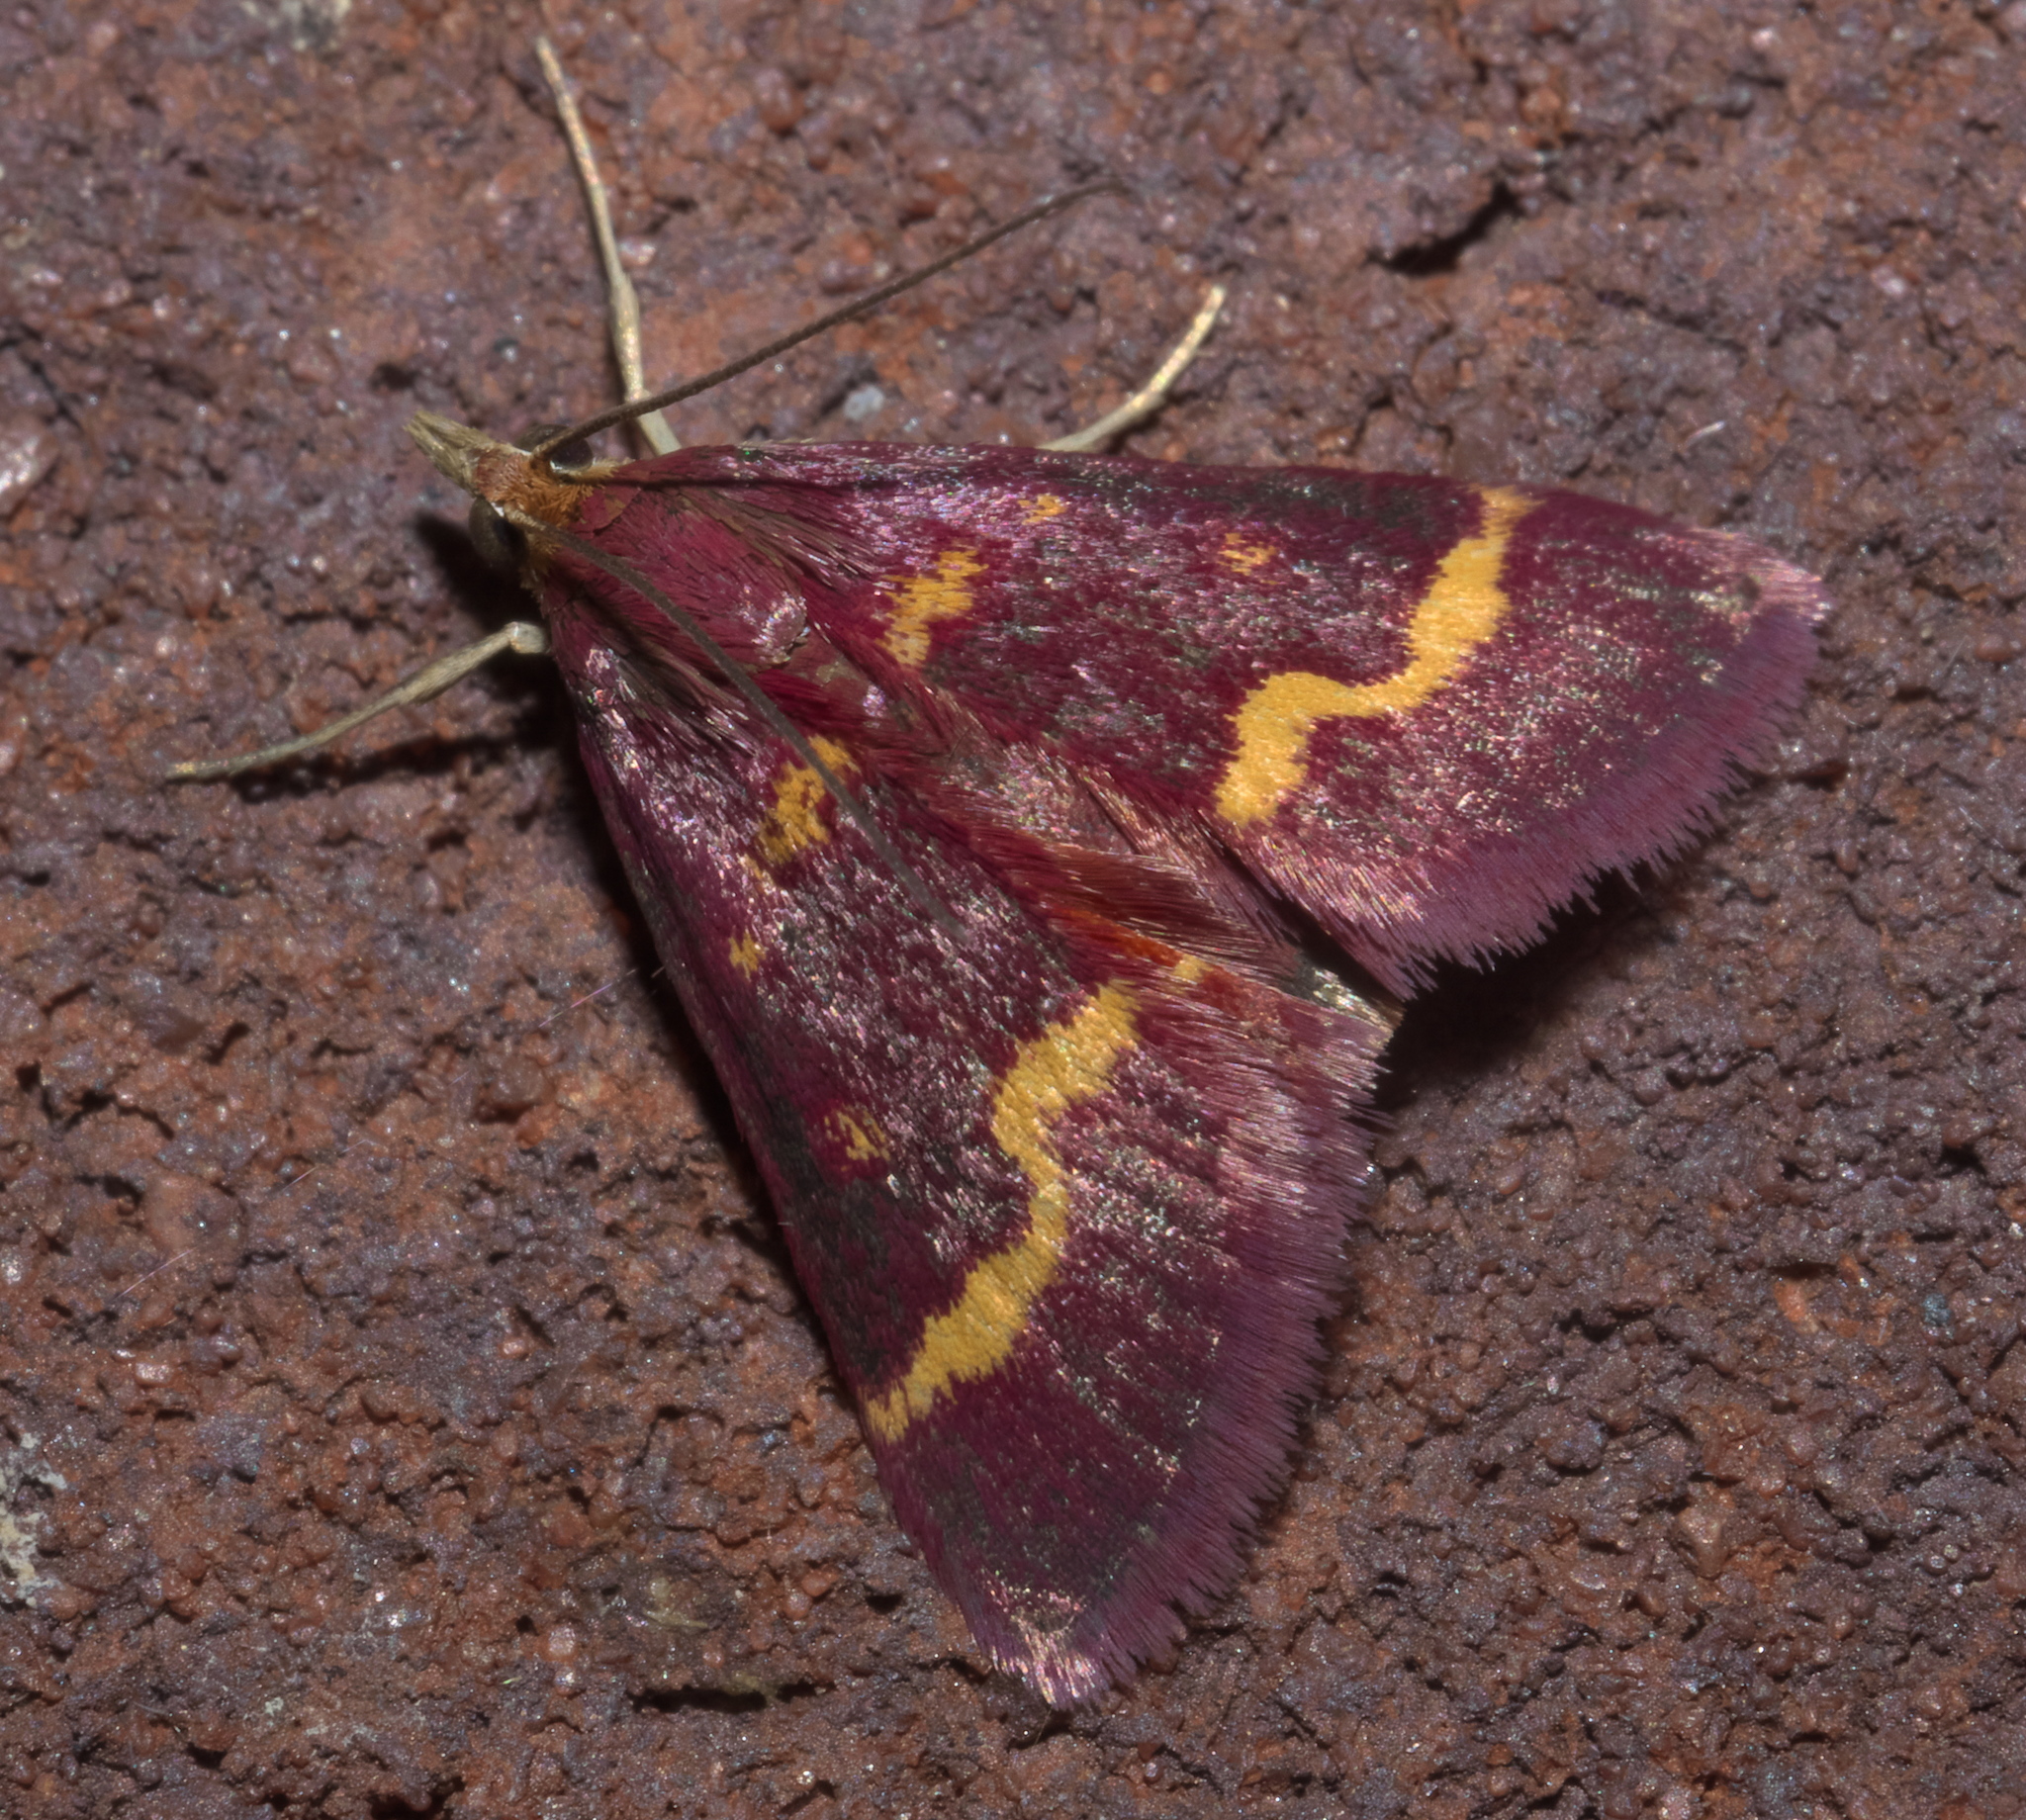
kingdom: Animalia
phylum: Arthropoda
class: Insecta
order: Lepidoptera
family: Crambidae
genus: Pyrausta
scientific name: Pyrausta tyralis
